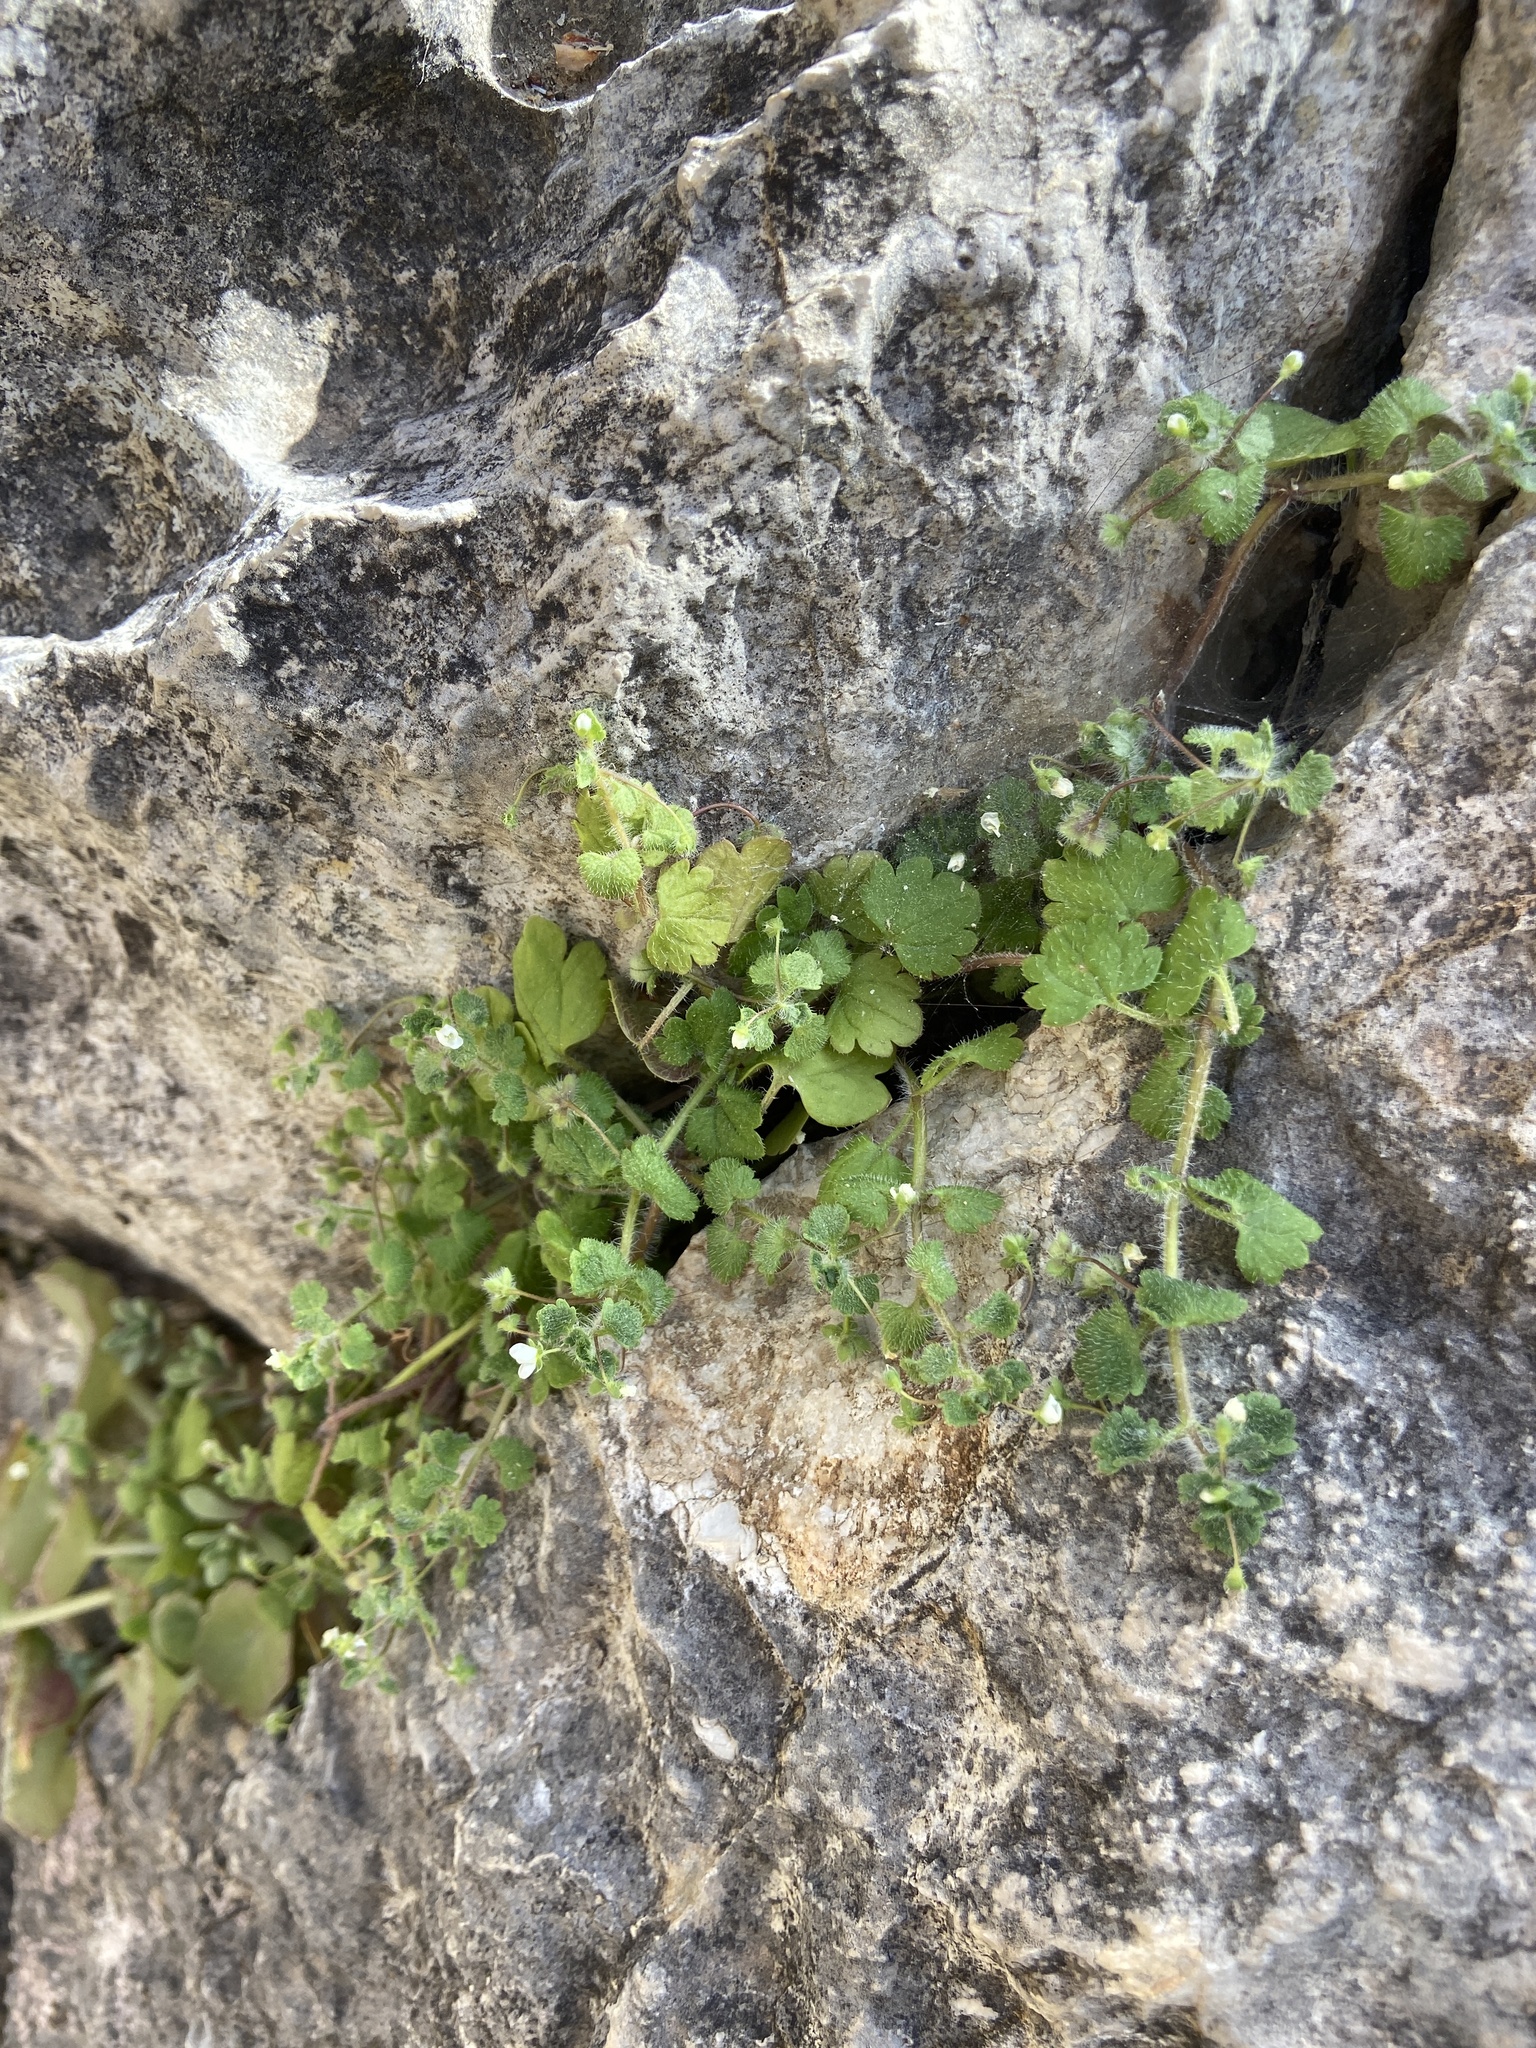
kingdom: Plantae
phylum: Tracheophyta
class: Magnoliopsida
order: Lamiales
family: Plantaginaceae
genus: Veronica
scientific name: Veronica cymbalaria
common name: Pale speedwell
